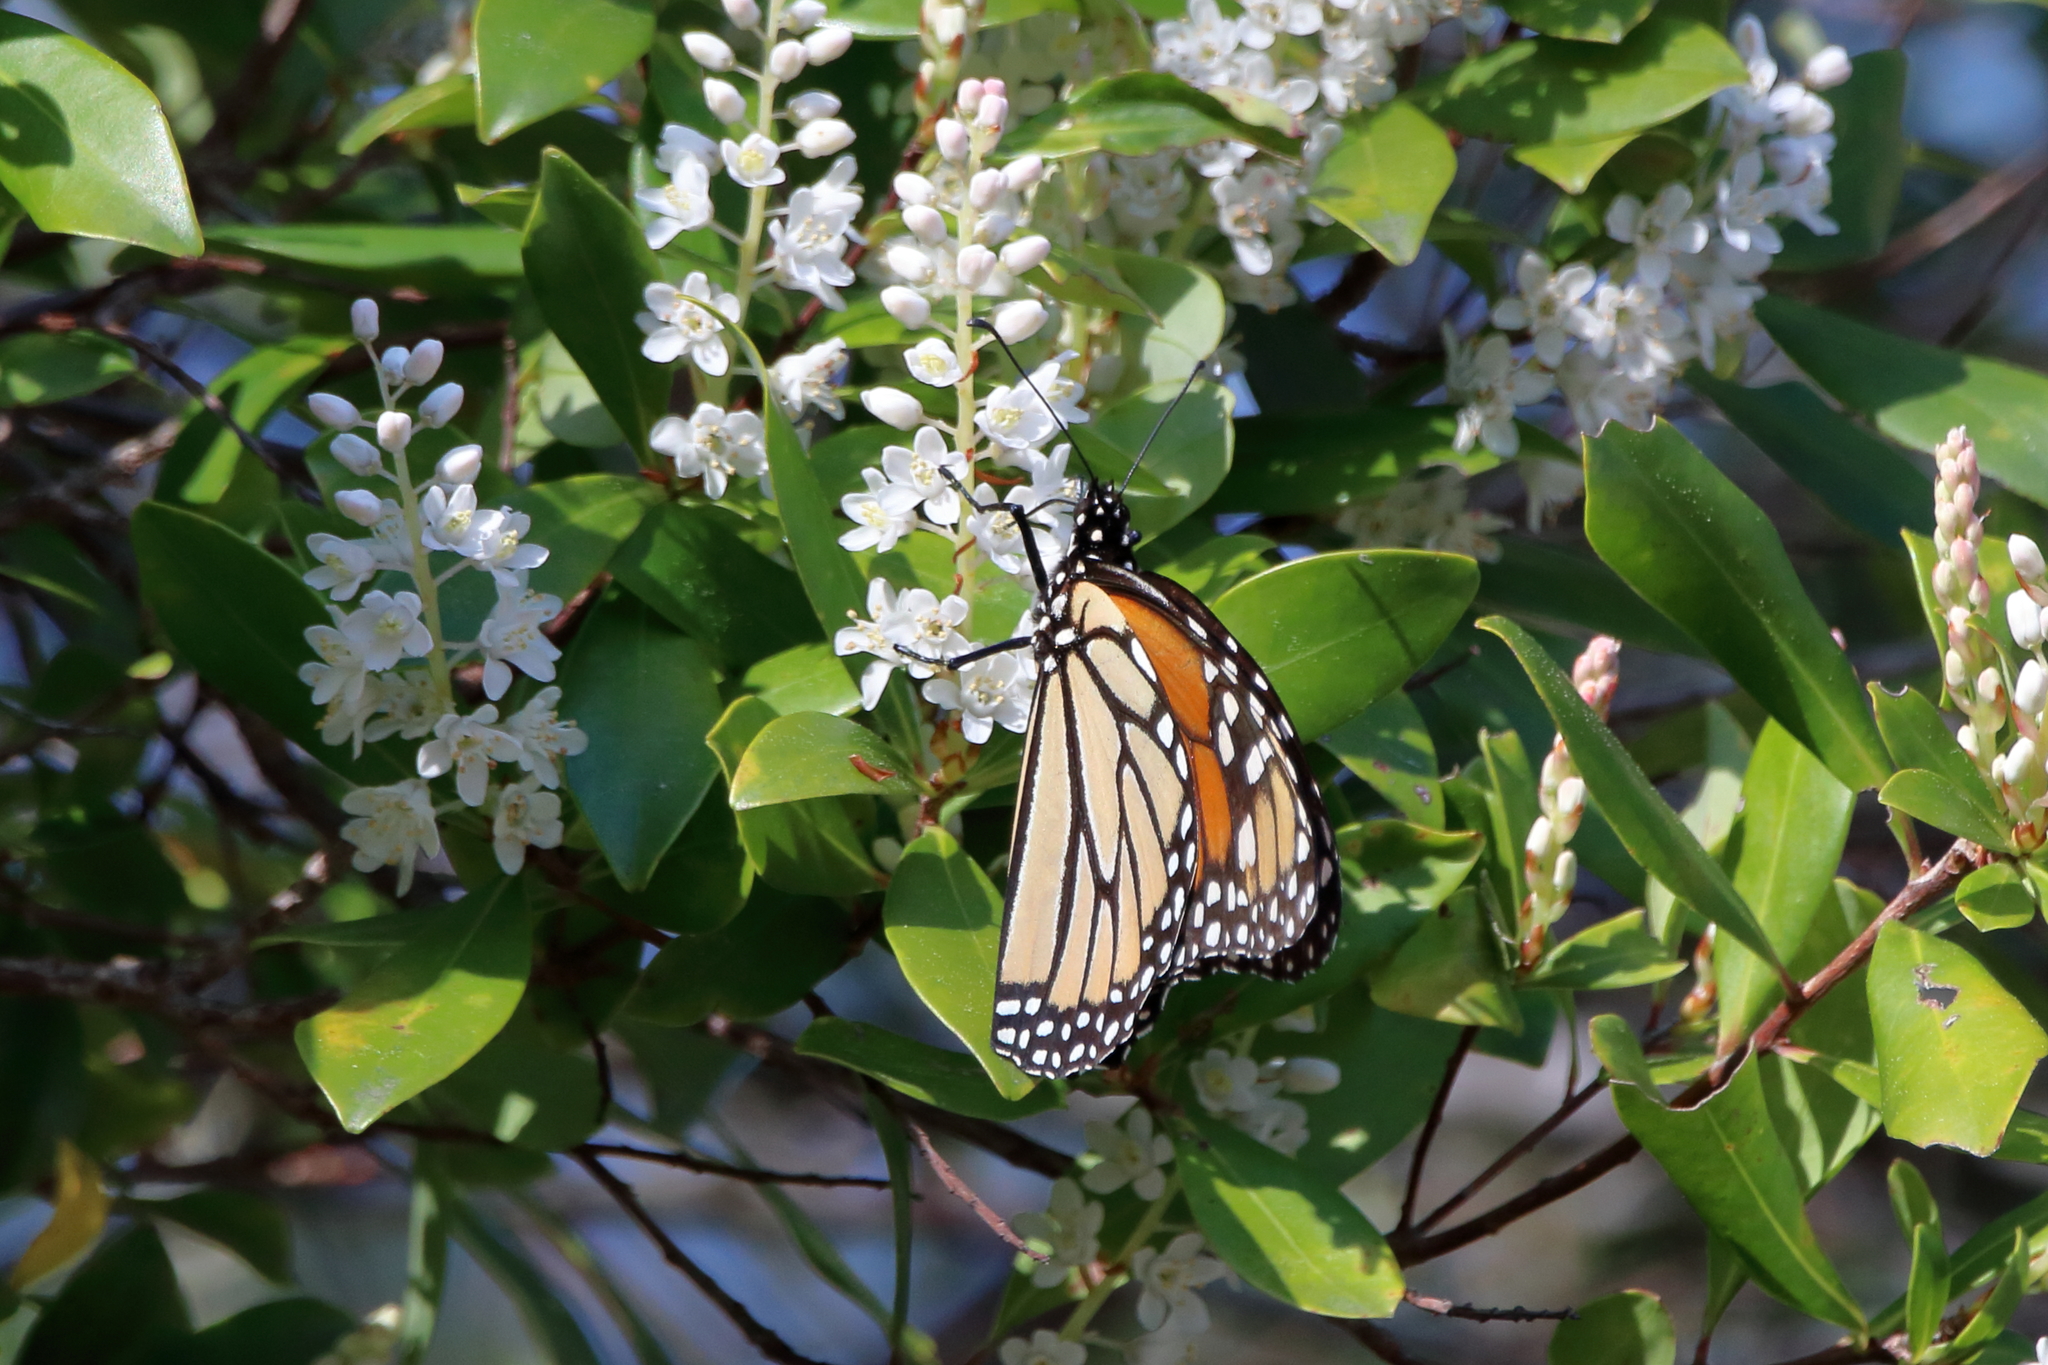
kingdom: Animalia
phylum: Arthropoda
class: Insecta
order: Lepidoptera
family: Nymphalidae
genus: Danaus
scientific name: Danaus plexippus
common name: Monarch
